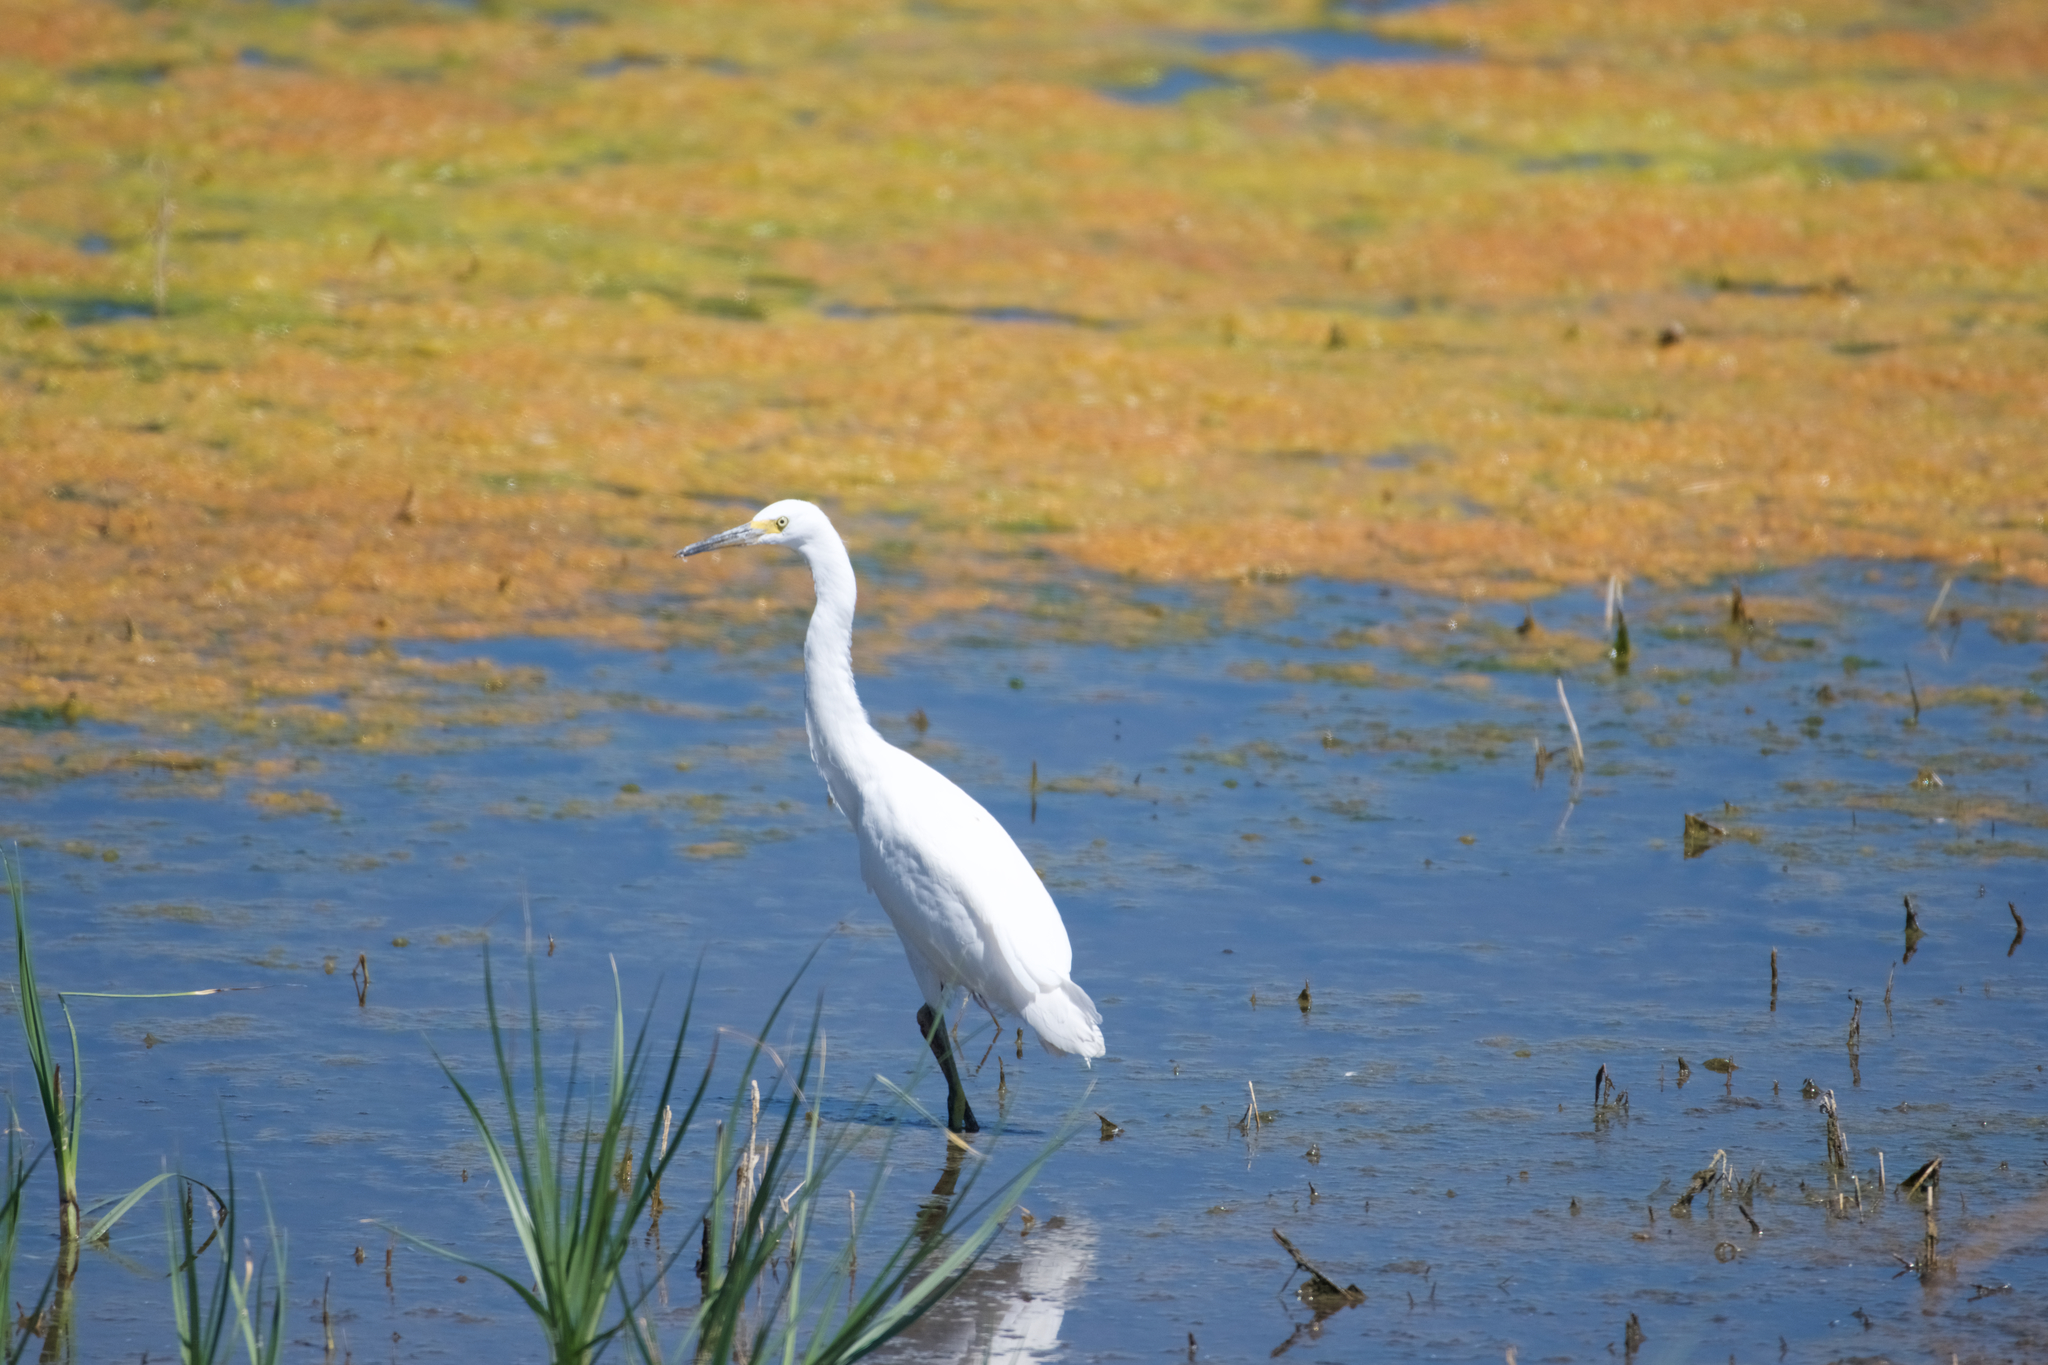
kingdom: Animalia
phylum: Chordata
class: Aves
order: Pelecaniformes
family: Ardeidae
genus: Egretta
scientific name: Egretta thula
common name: Snowy egret
